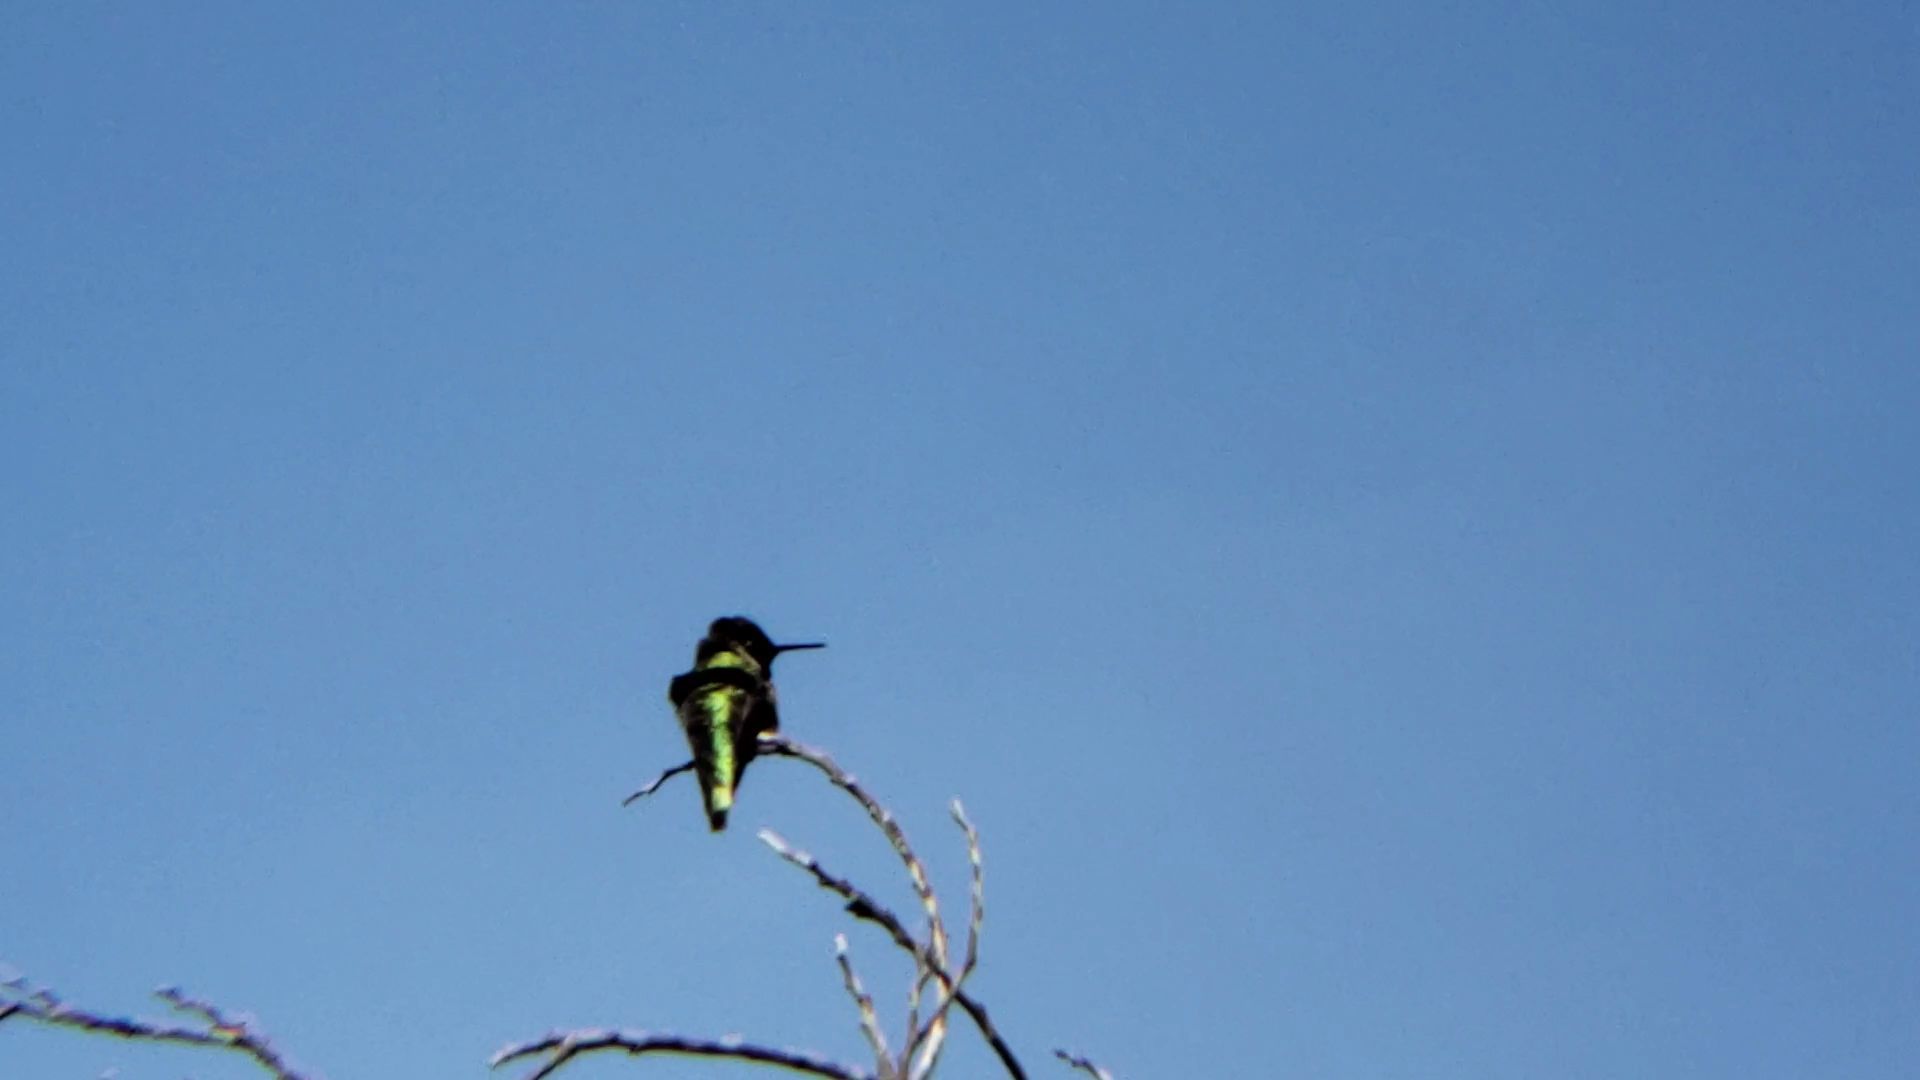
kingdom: Animalia
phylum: Chordata
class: Aves
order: Apodiformes
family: Trochilidae
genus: Calypte
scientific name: Calypte anna
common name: Anna's hummingbird
